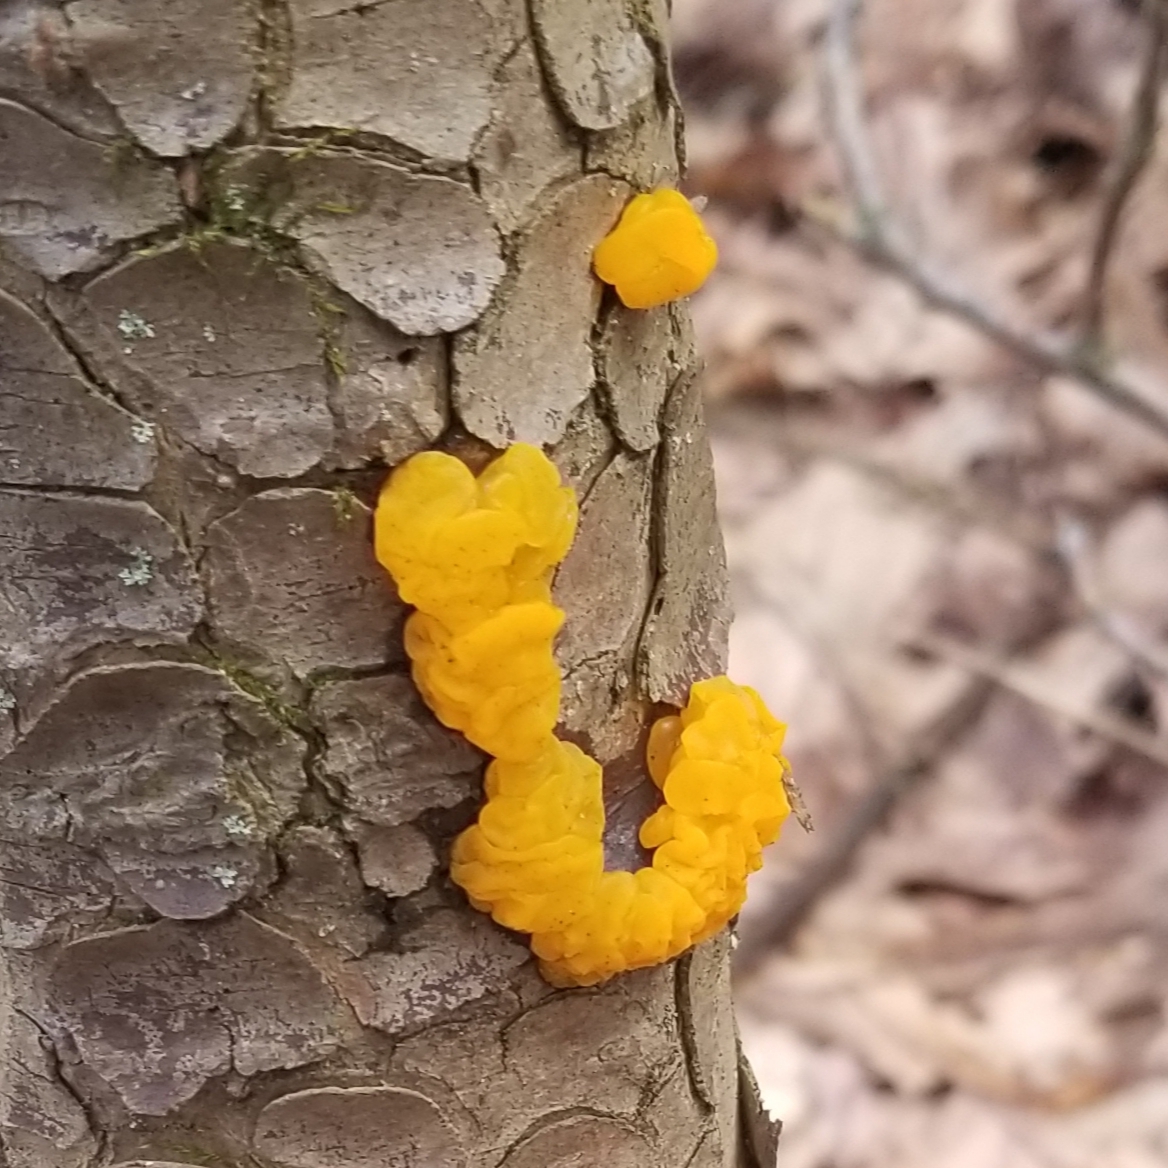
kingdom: Fungi
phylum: Basidiomycota
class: Dacrymycetes
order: Dacrymycetales
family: Dacrymycetaceae
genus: Dacrymyces
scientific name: Dacrymyces chrysospermus
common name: Orange jelly spot
